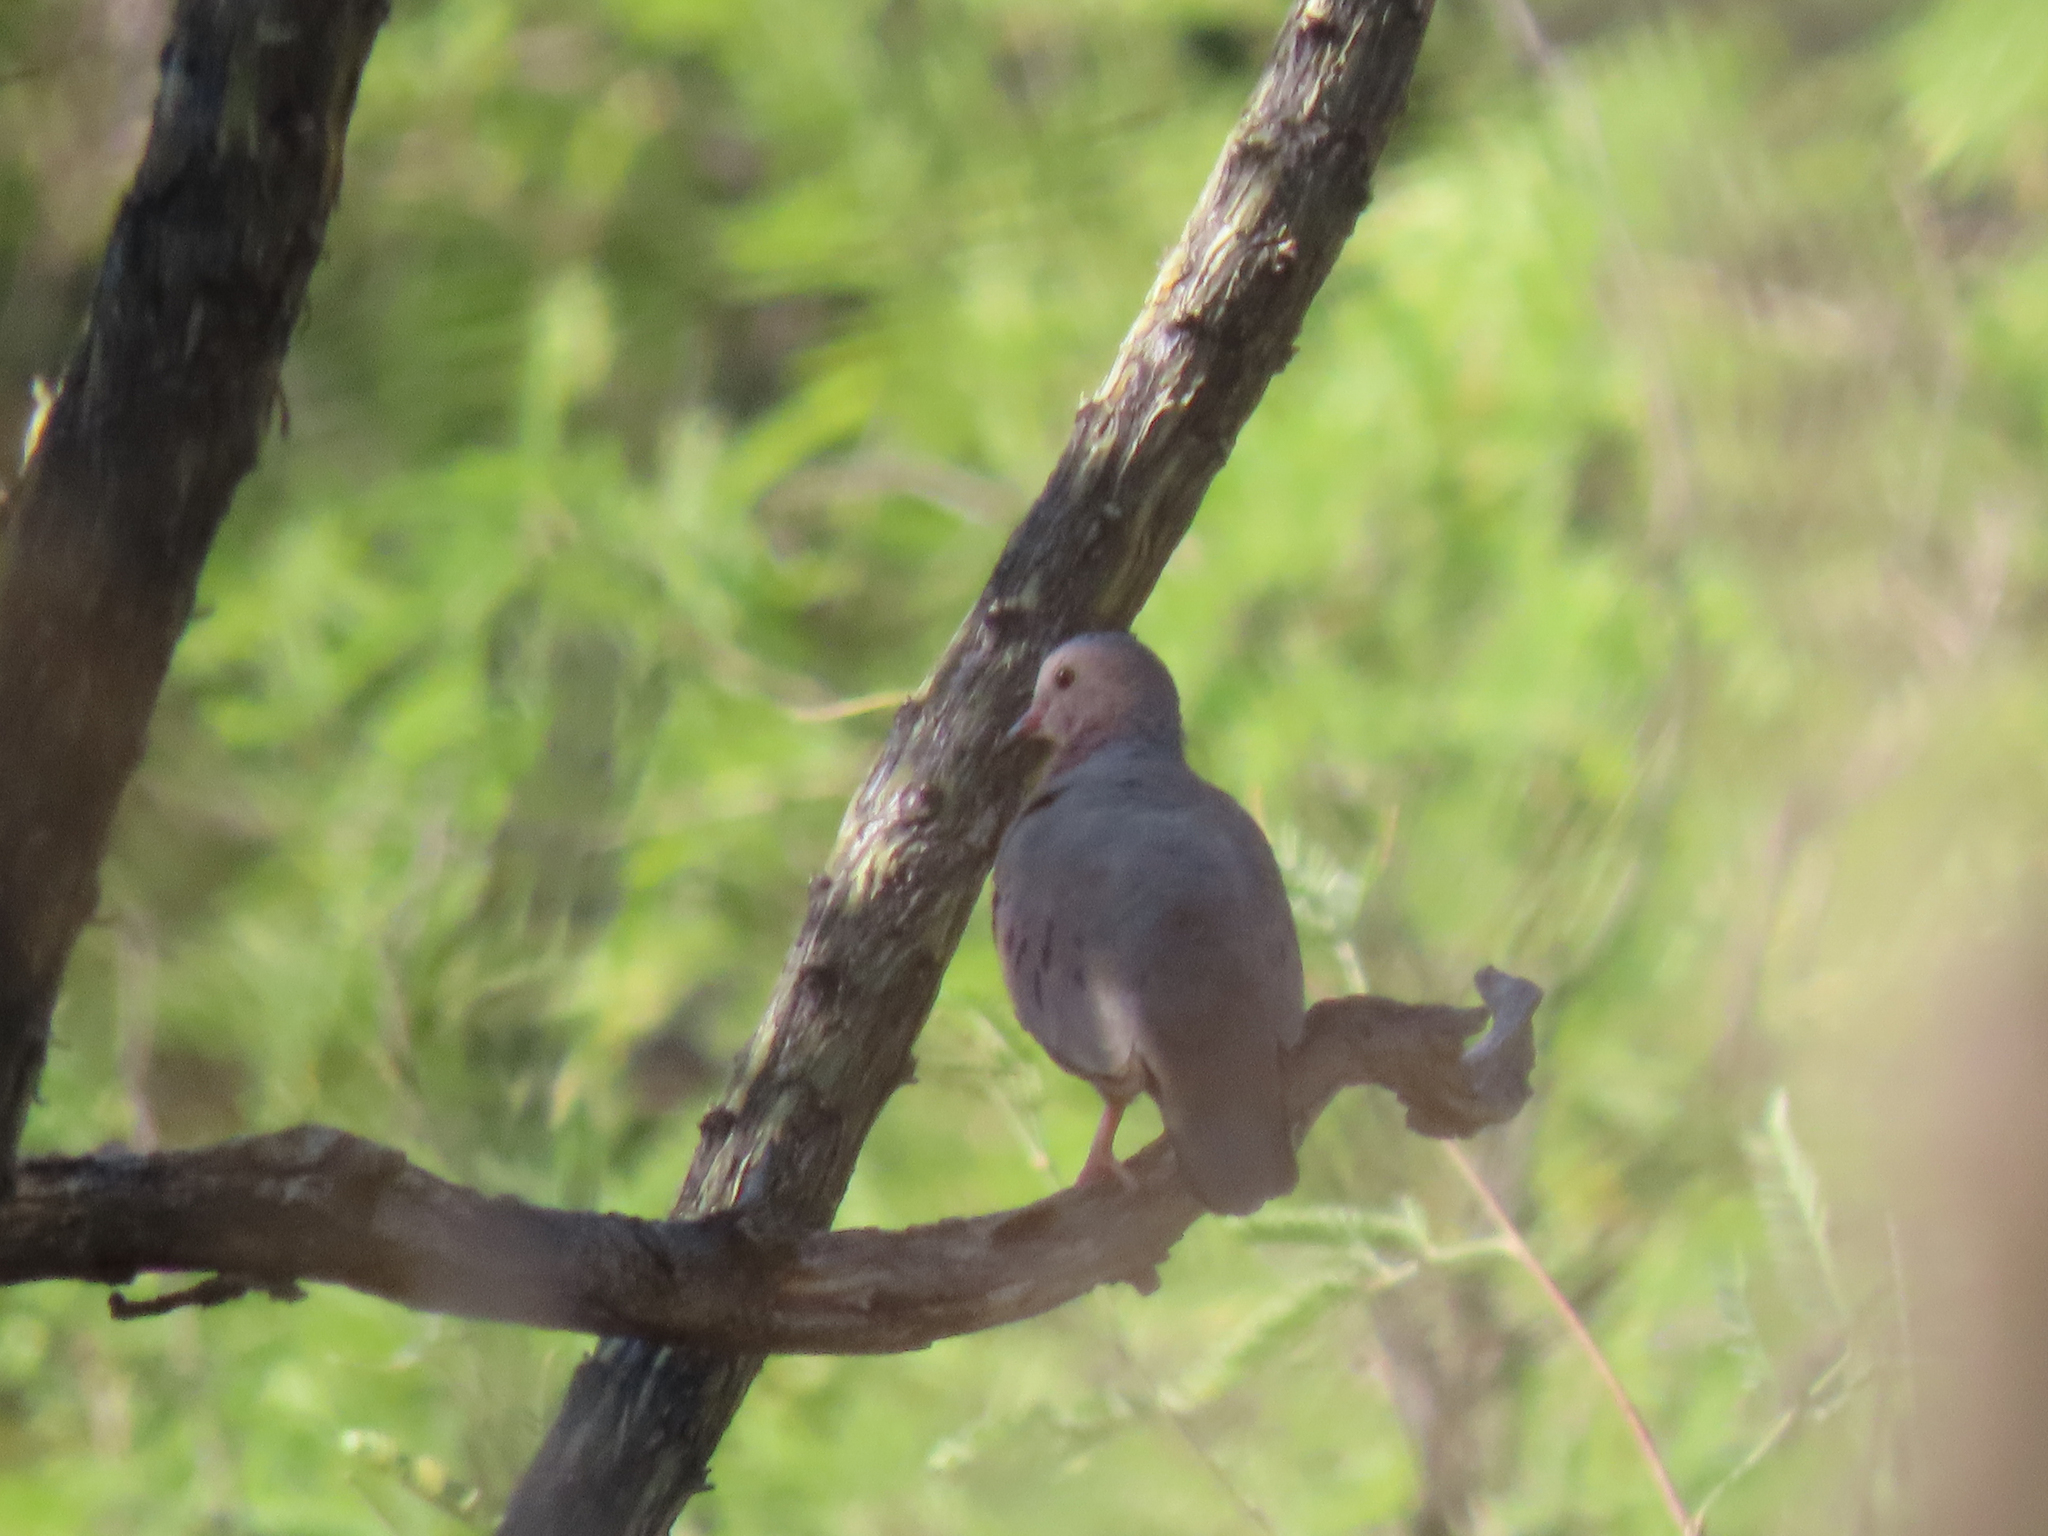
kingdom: Animalia
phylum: Chordata
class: Aves
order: Columbiformes
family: Columbidae
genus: Columbina
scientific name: Columbina passerina
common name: Common ground-dove
